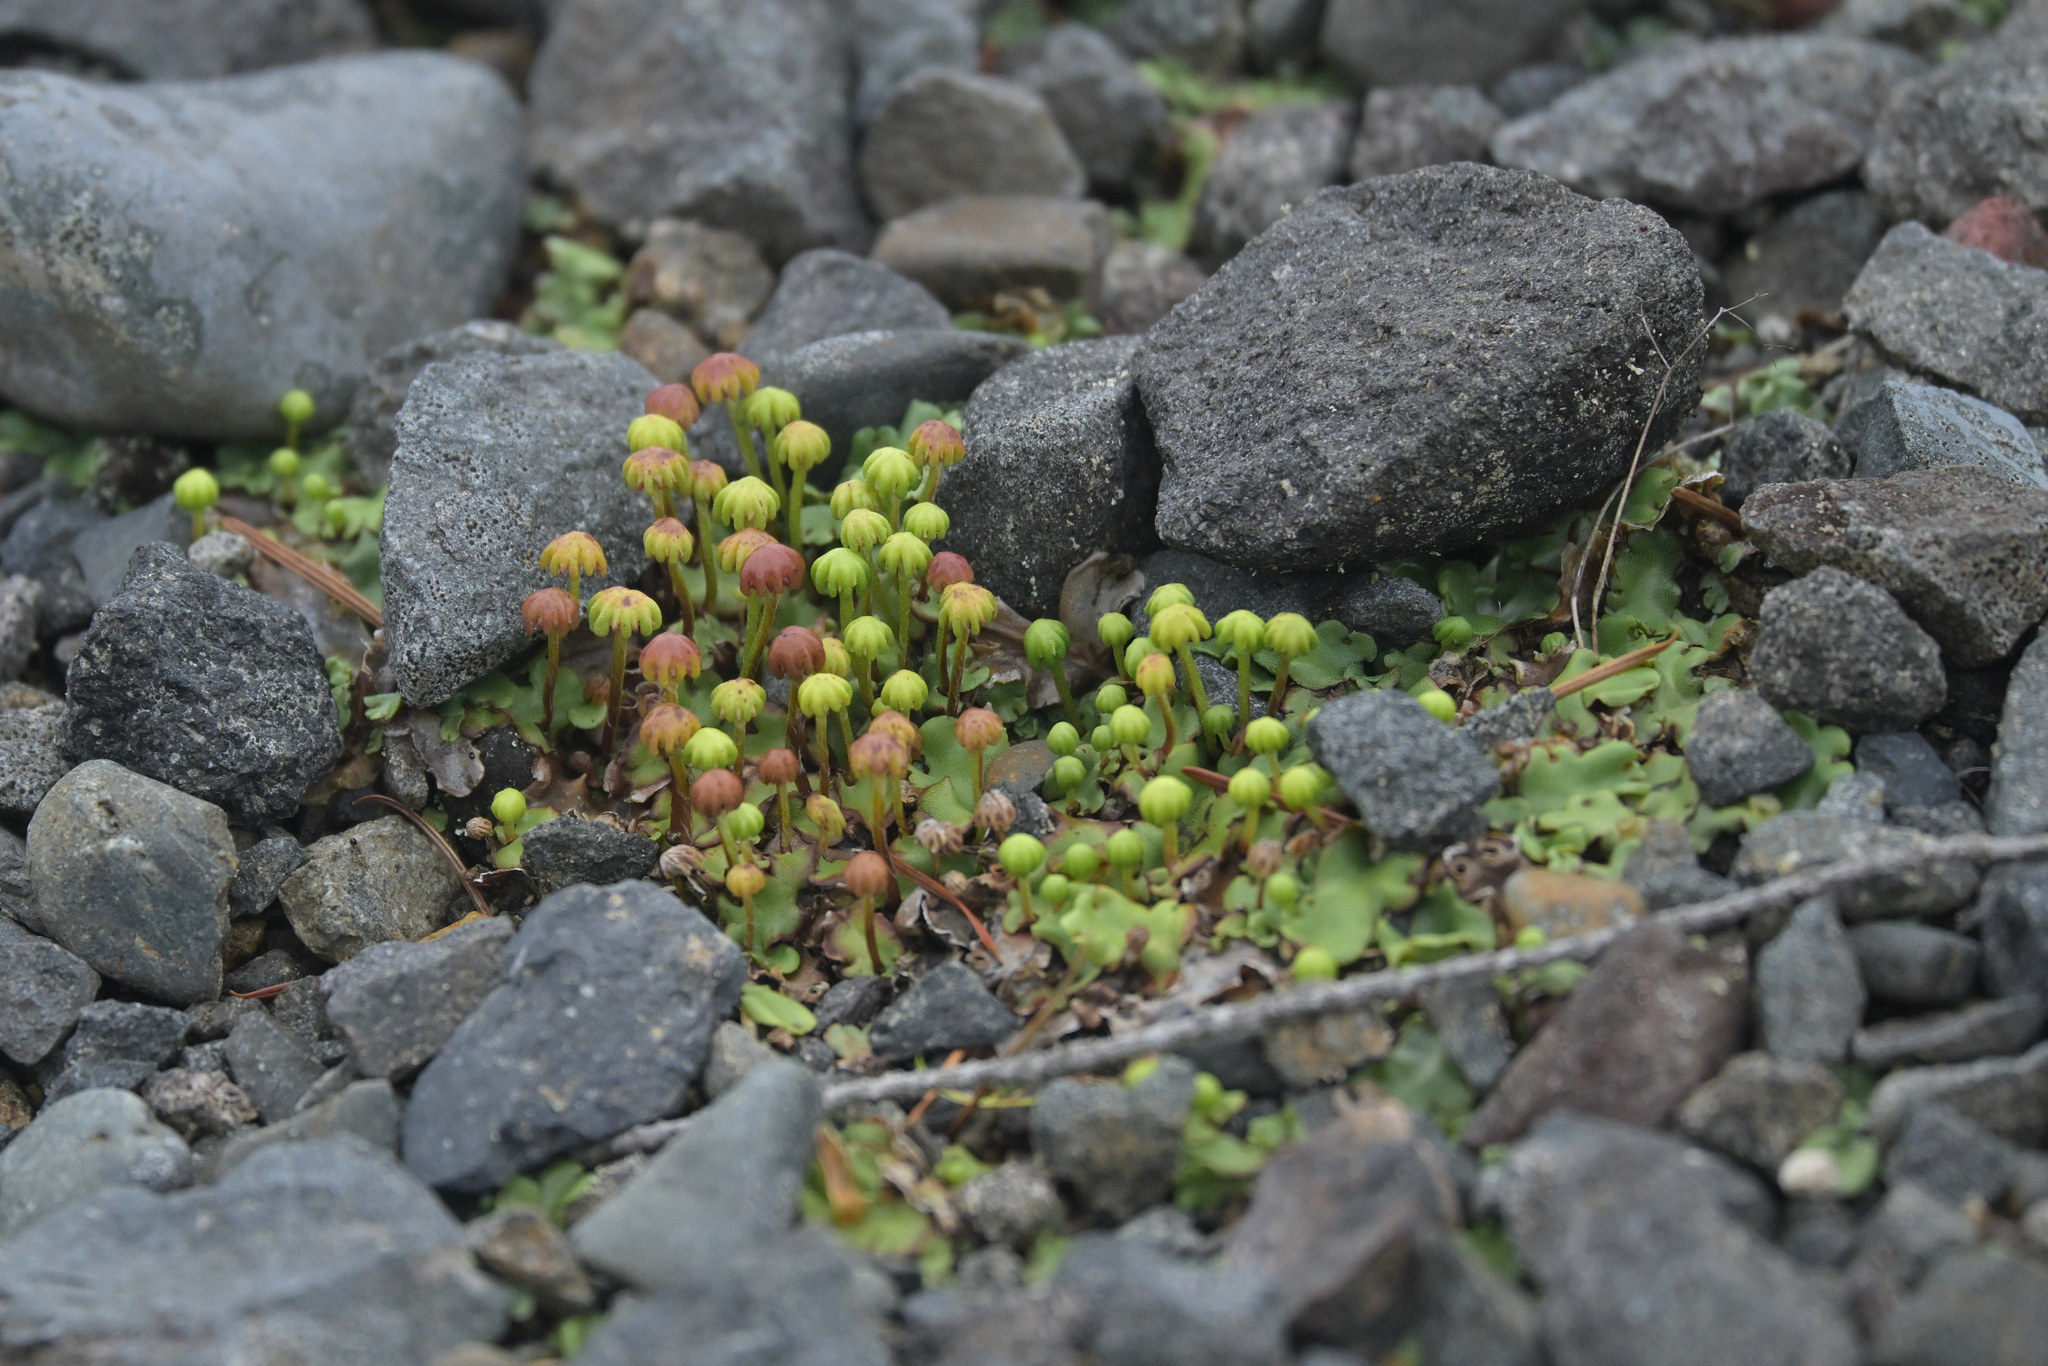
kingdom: Plantae
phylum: Marchantiophyta
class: Marchantiopsida
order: Marchantiales
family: Marchantiaceae
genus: Marchantia
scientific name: Marchantia berteroana
